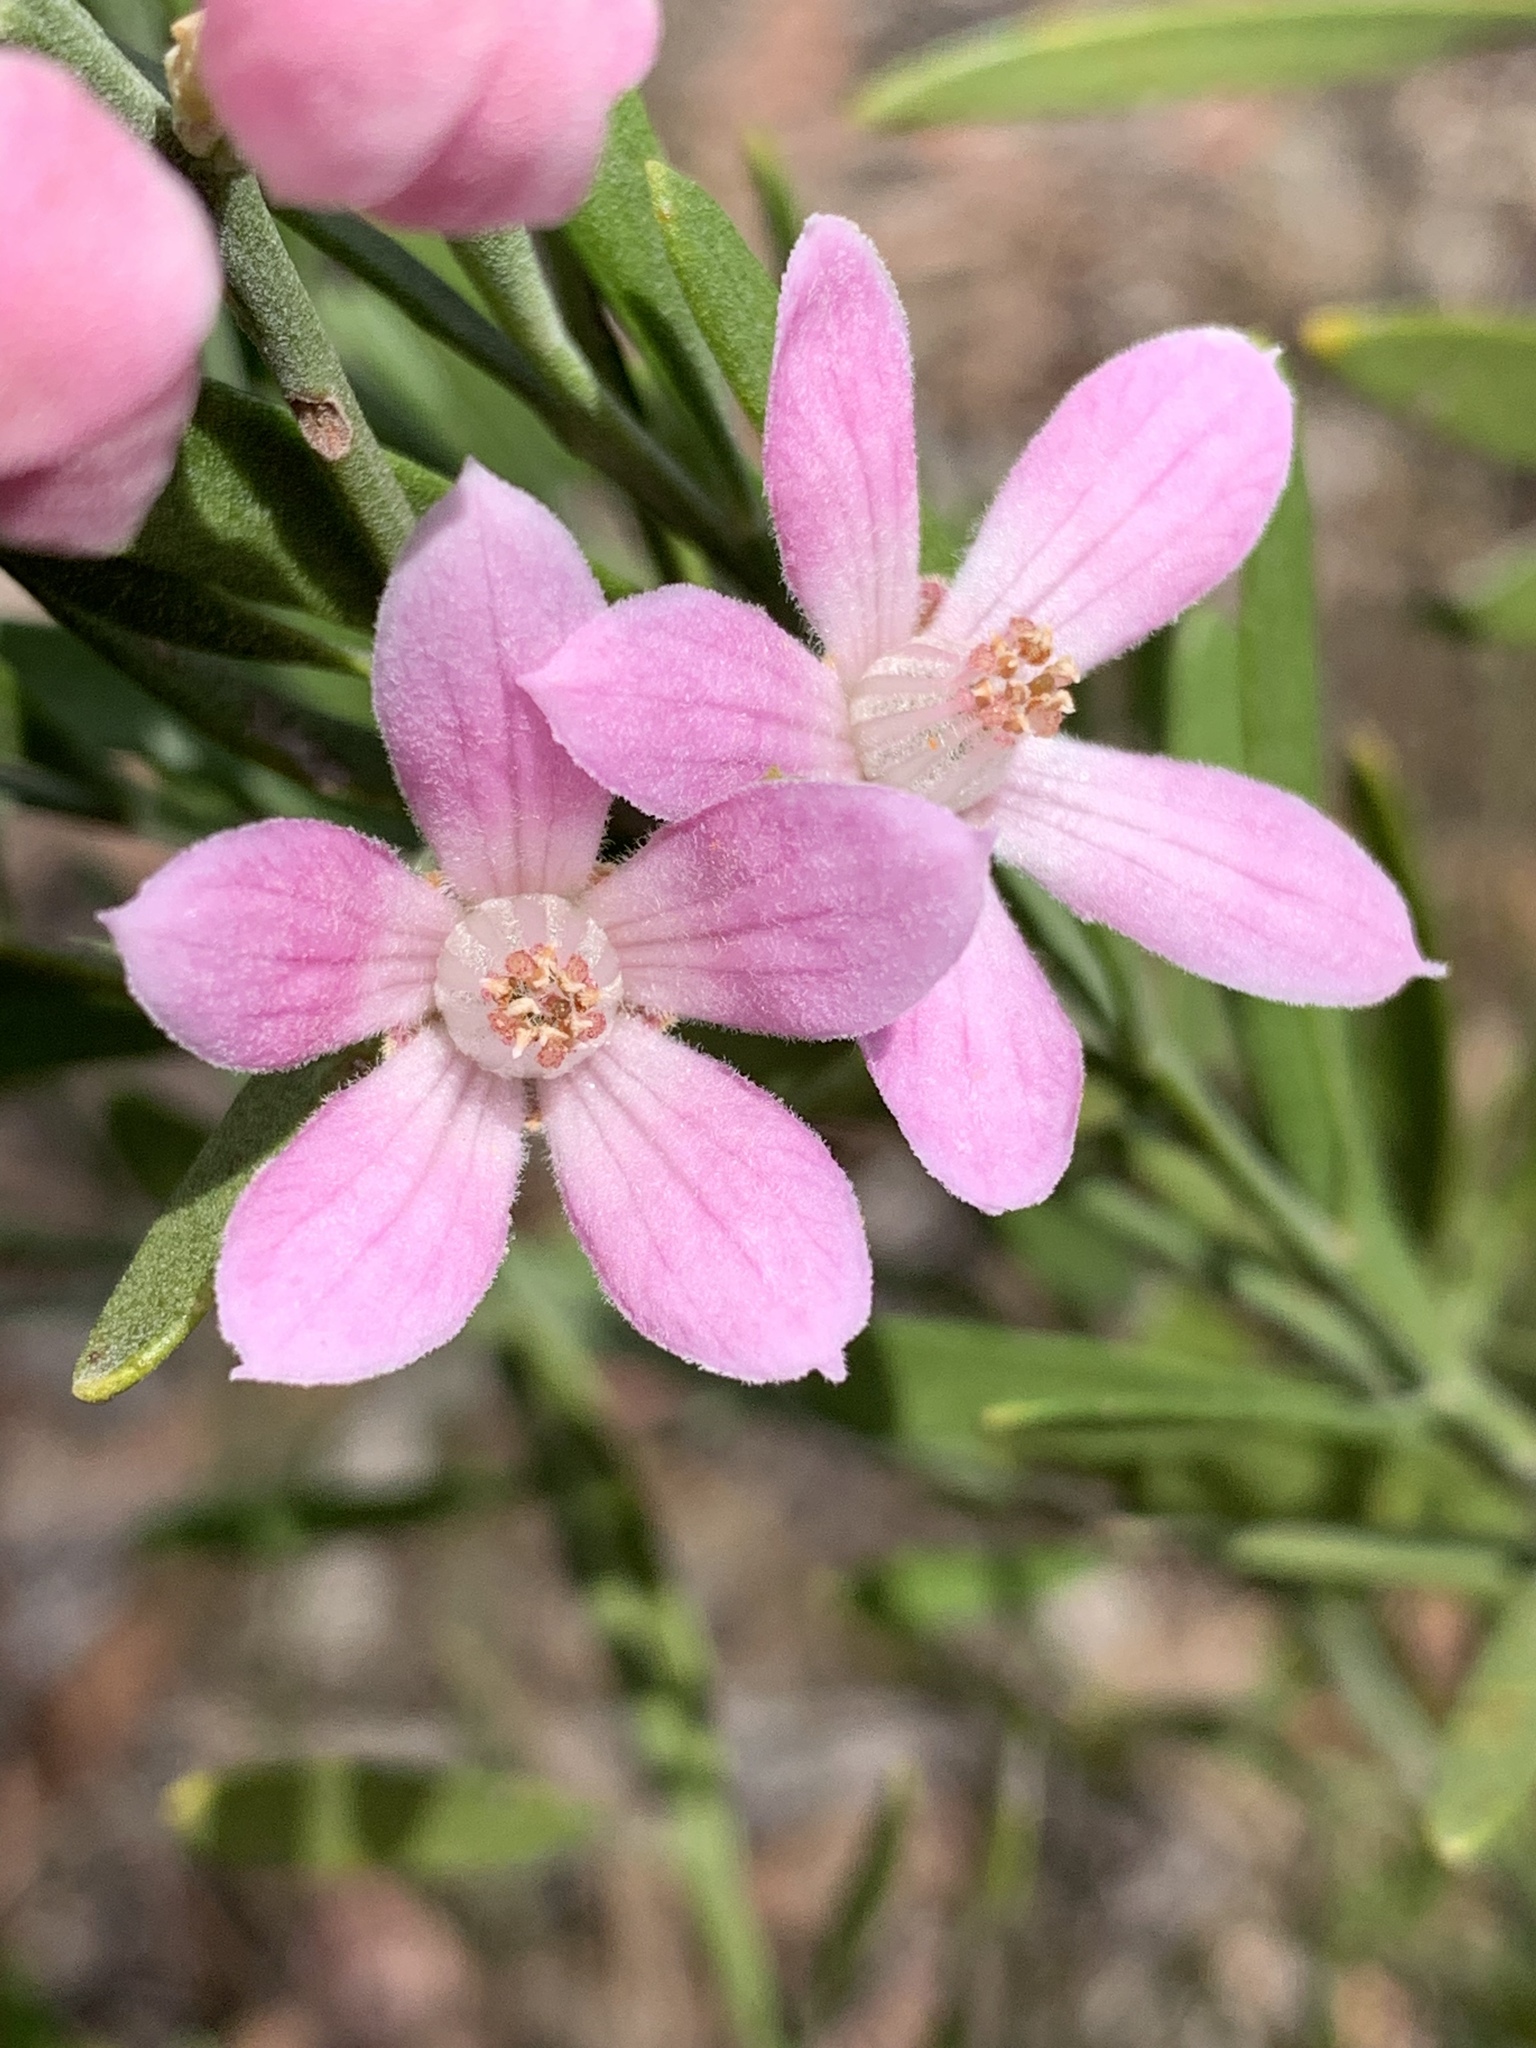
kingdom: Plantae
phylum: Tracheophyta
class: Magnoliopsida
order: Sapindales
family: Rutaceae
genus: Eriostemon
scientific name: Eriostemon australasius
